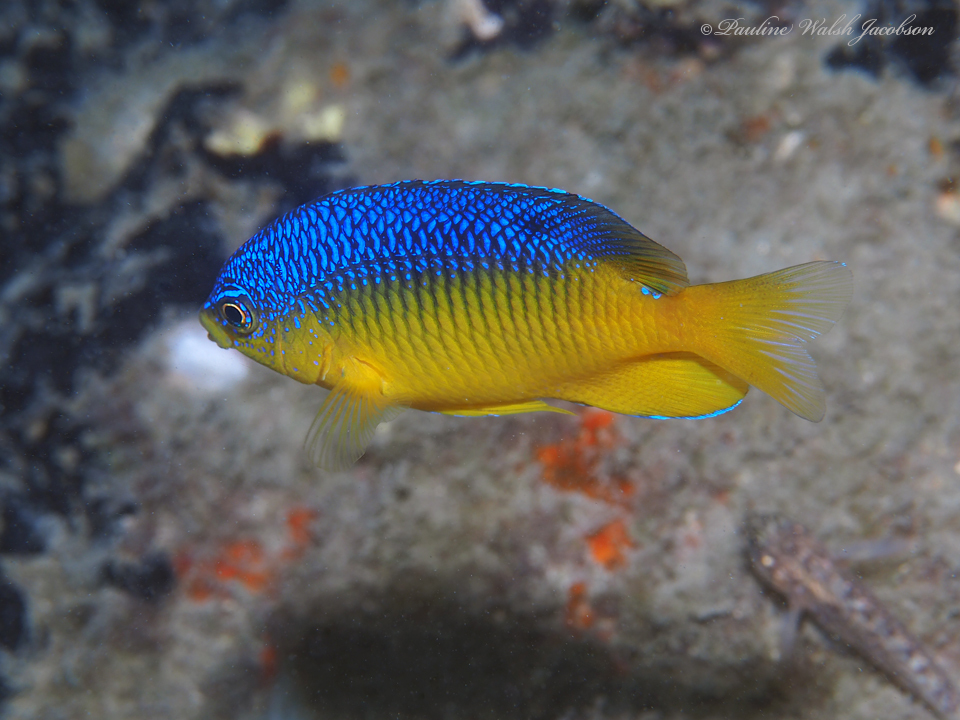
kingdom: Animalia
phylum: Chordata
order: Perciformes
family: Pomacentridae
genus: Stegastes
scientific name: Stegastes xanthurus
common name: Cocoa damselfish
